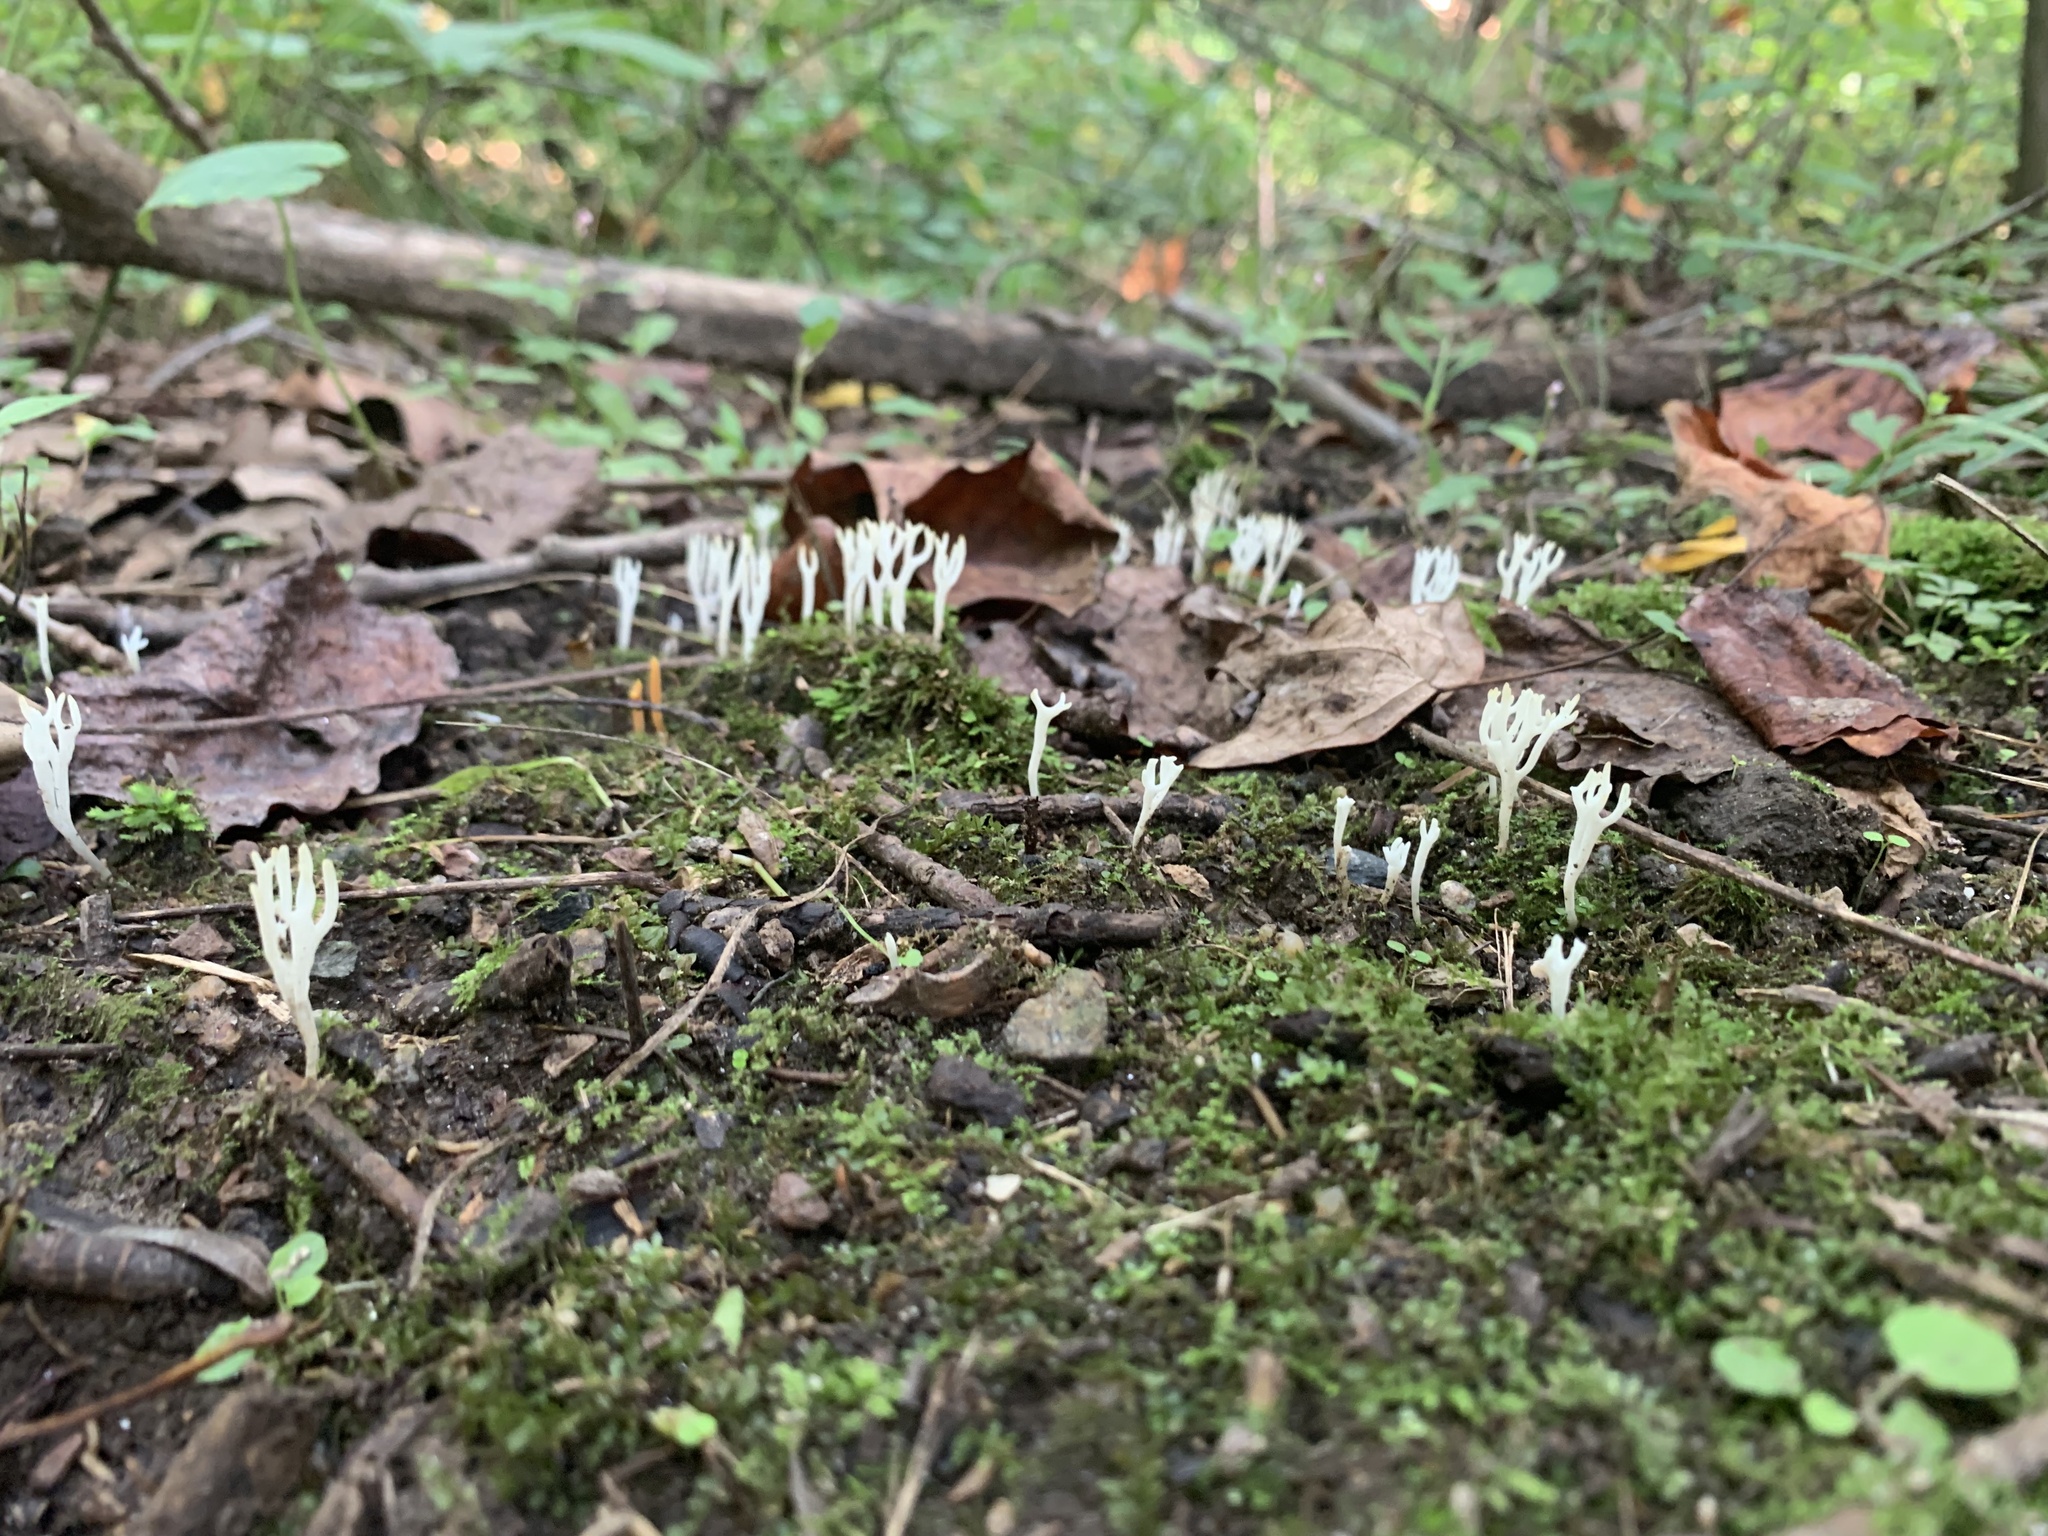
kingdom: Fungi
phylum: Basidiomycota
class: Agaricomycetes
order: Agaricales
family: Clavariaceae
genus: Ramariopsis
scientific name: Ramariopsis kunzei
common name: Ivory coral
